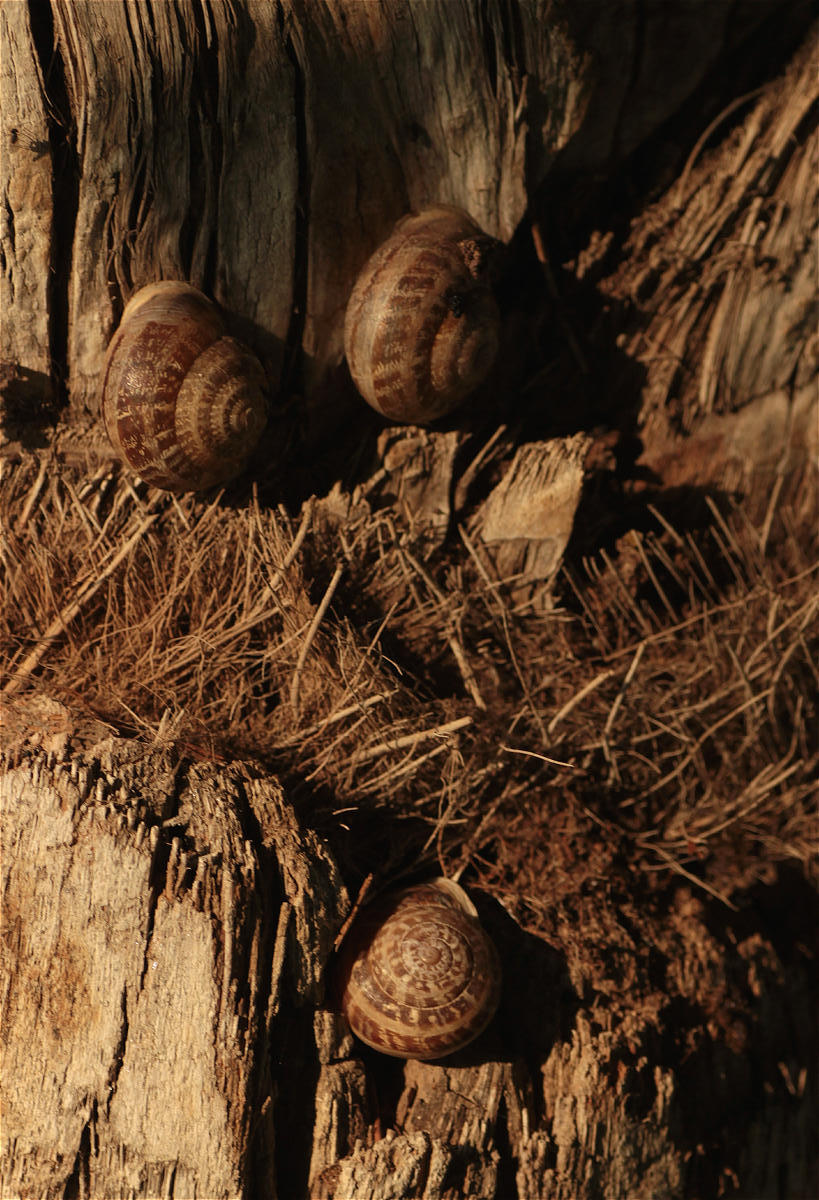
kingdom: Animalia
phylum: Mollusca
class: Gastropoda
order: Stylommatophora
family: Helicidae
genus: Eobania
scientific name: Eobania vermiculata
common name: Chocolateband snail
